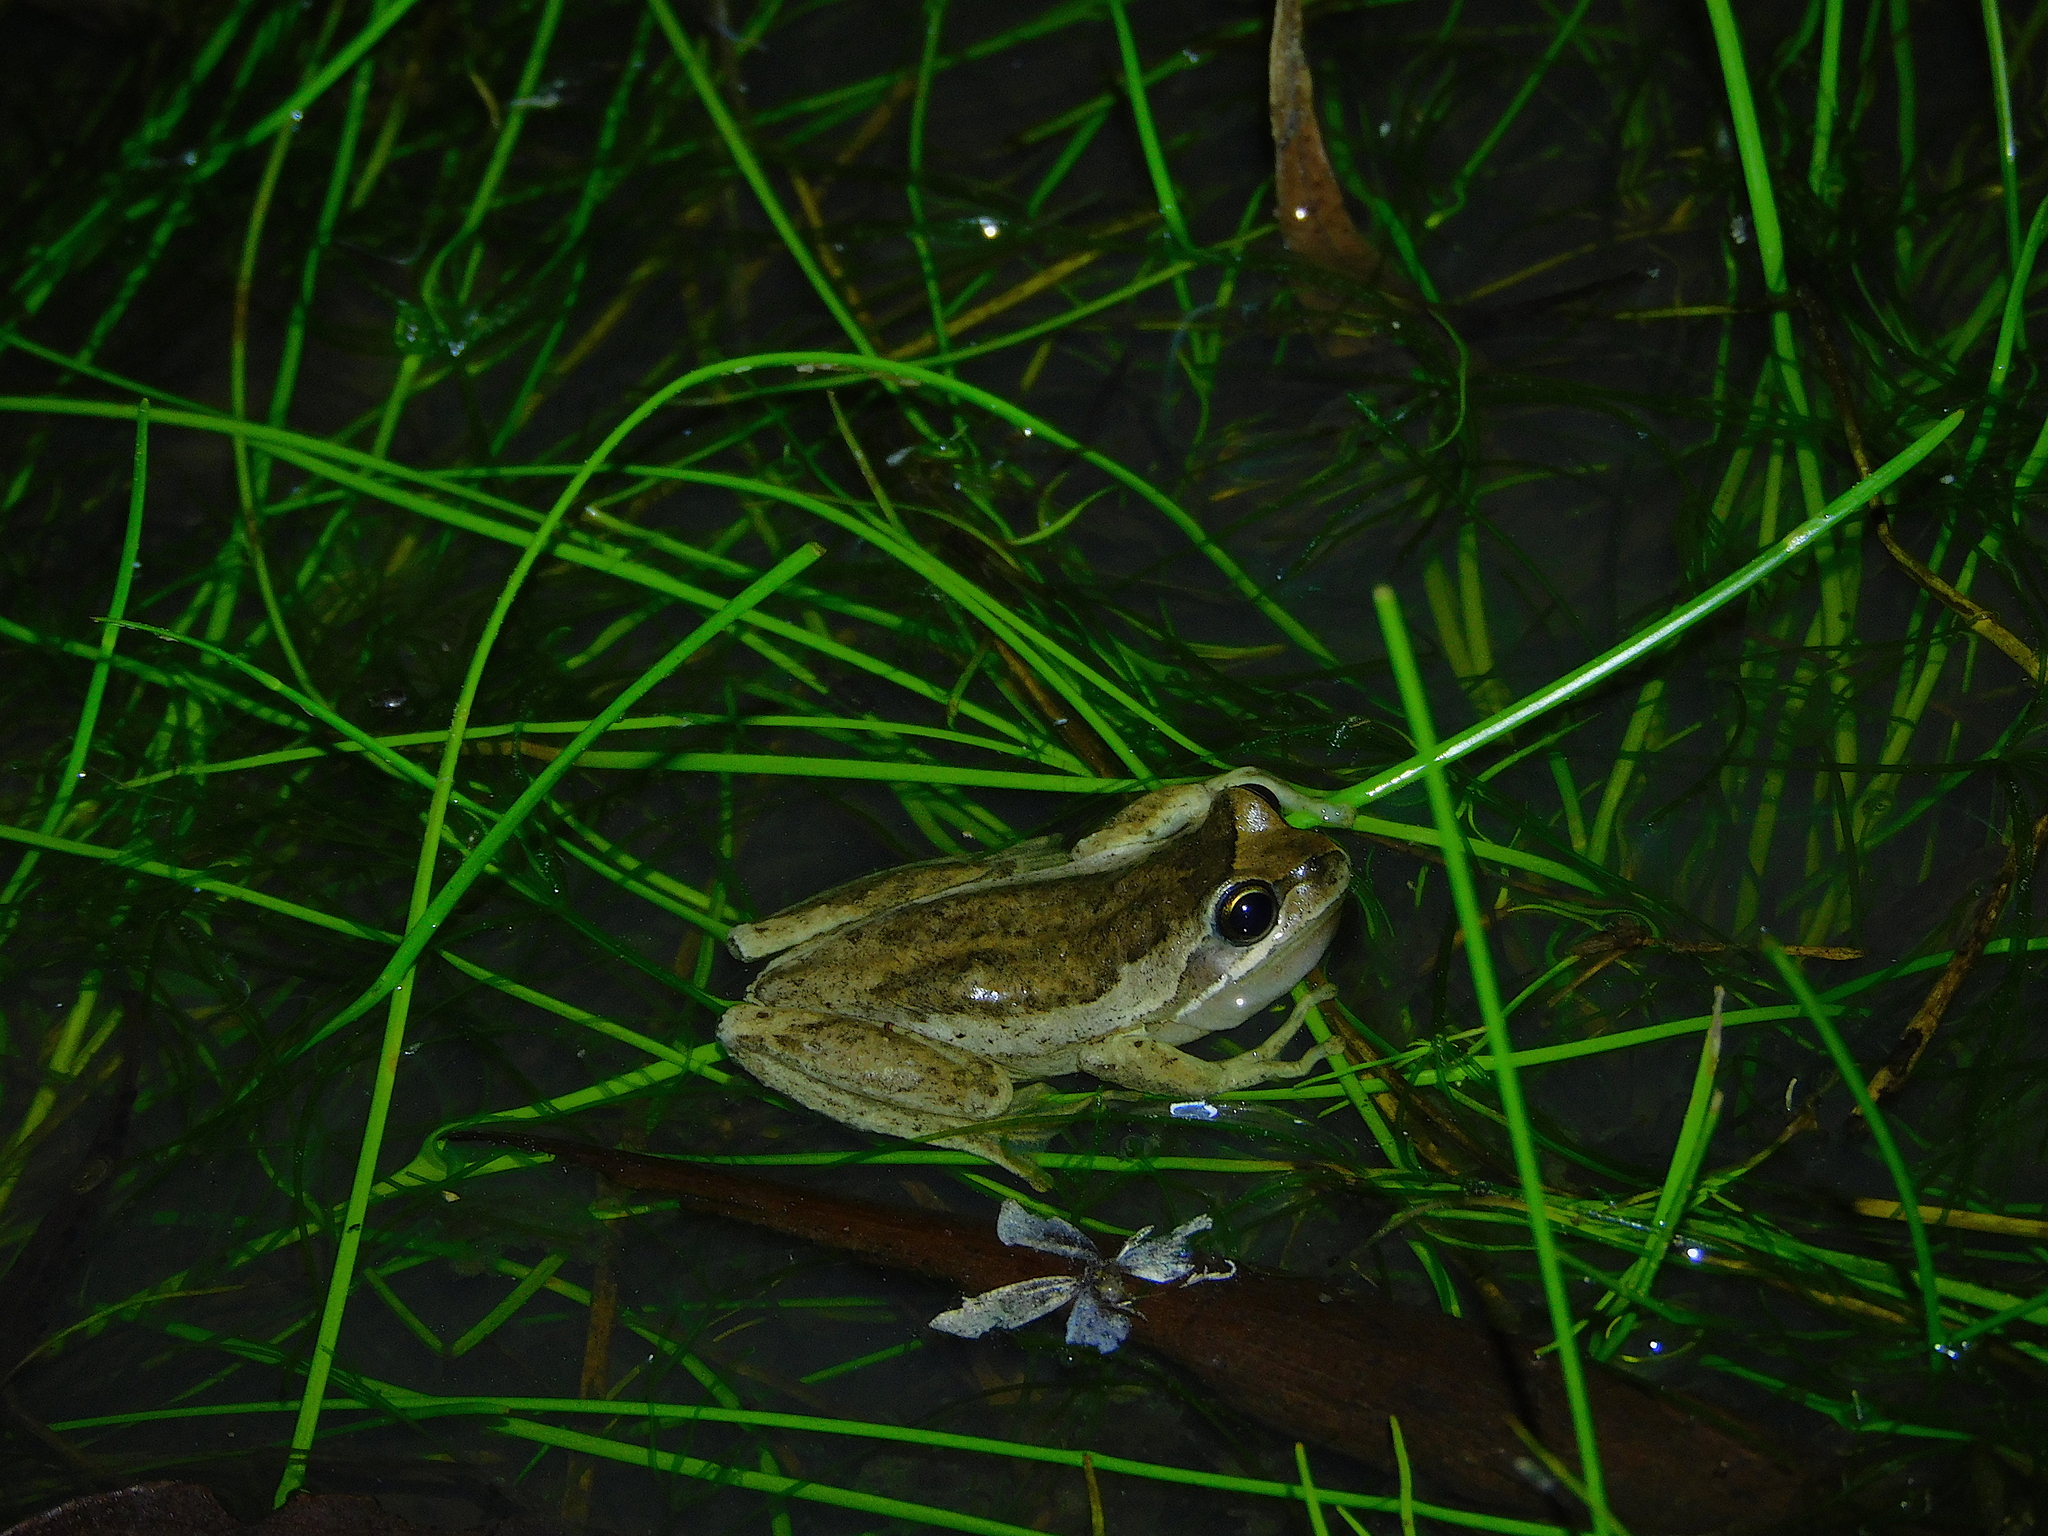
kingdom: Animalia
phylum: Chordata
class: Amphibia
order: Anura
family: Pelodryadidae
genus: Litoria
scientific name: Litoria ewingii
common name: Southern brown tree frog
